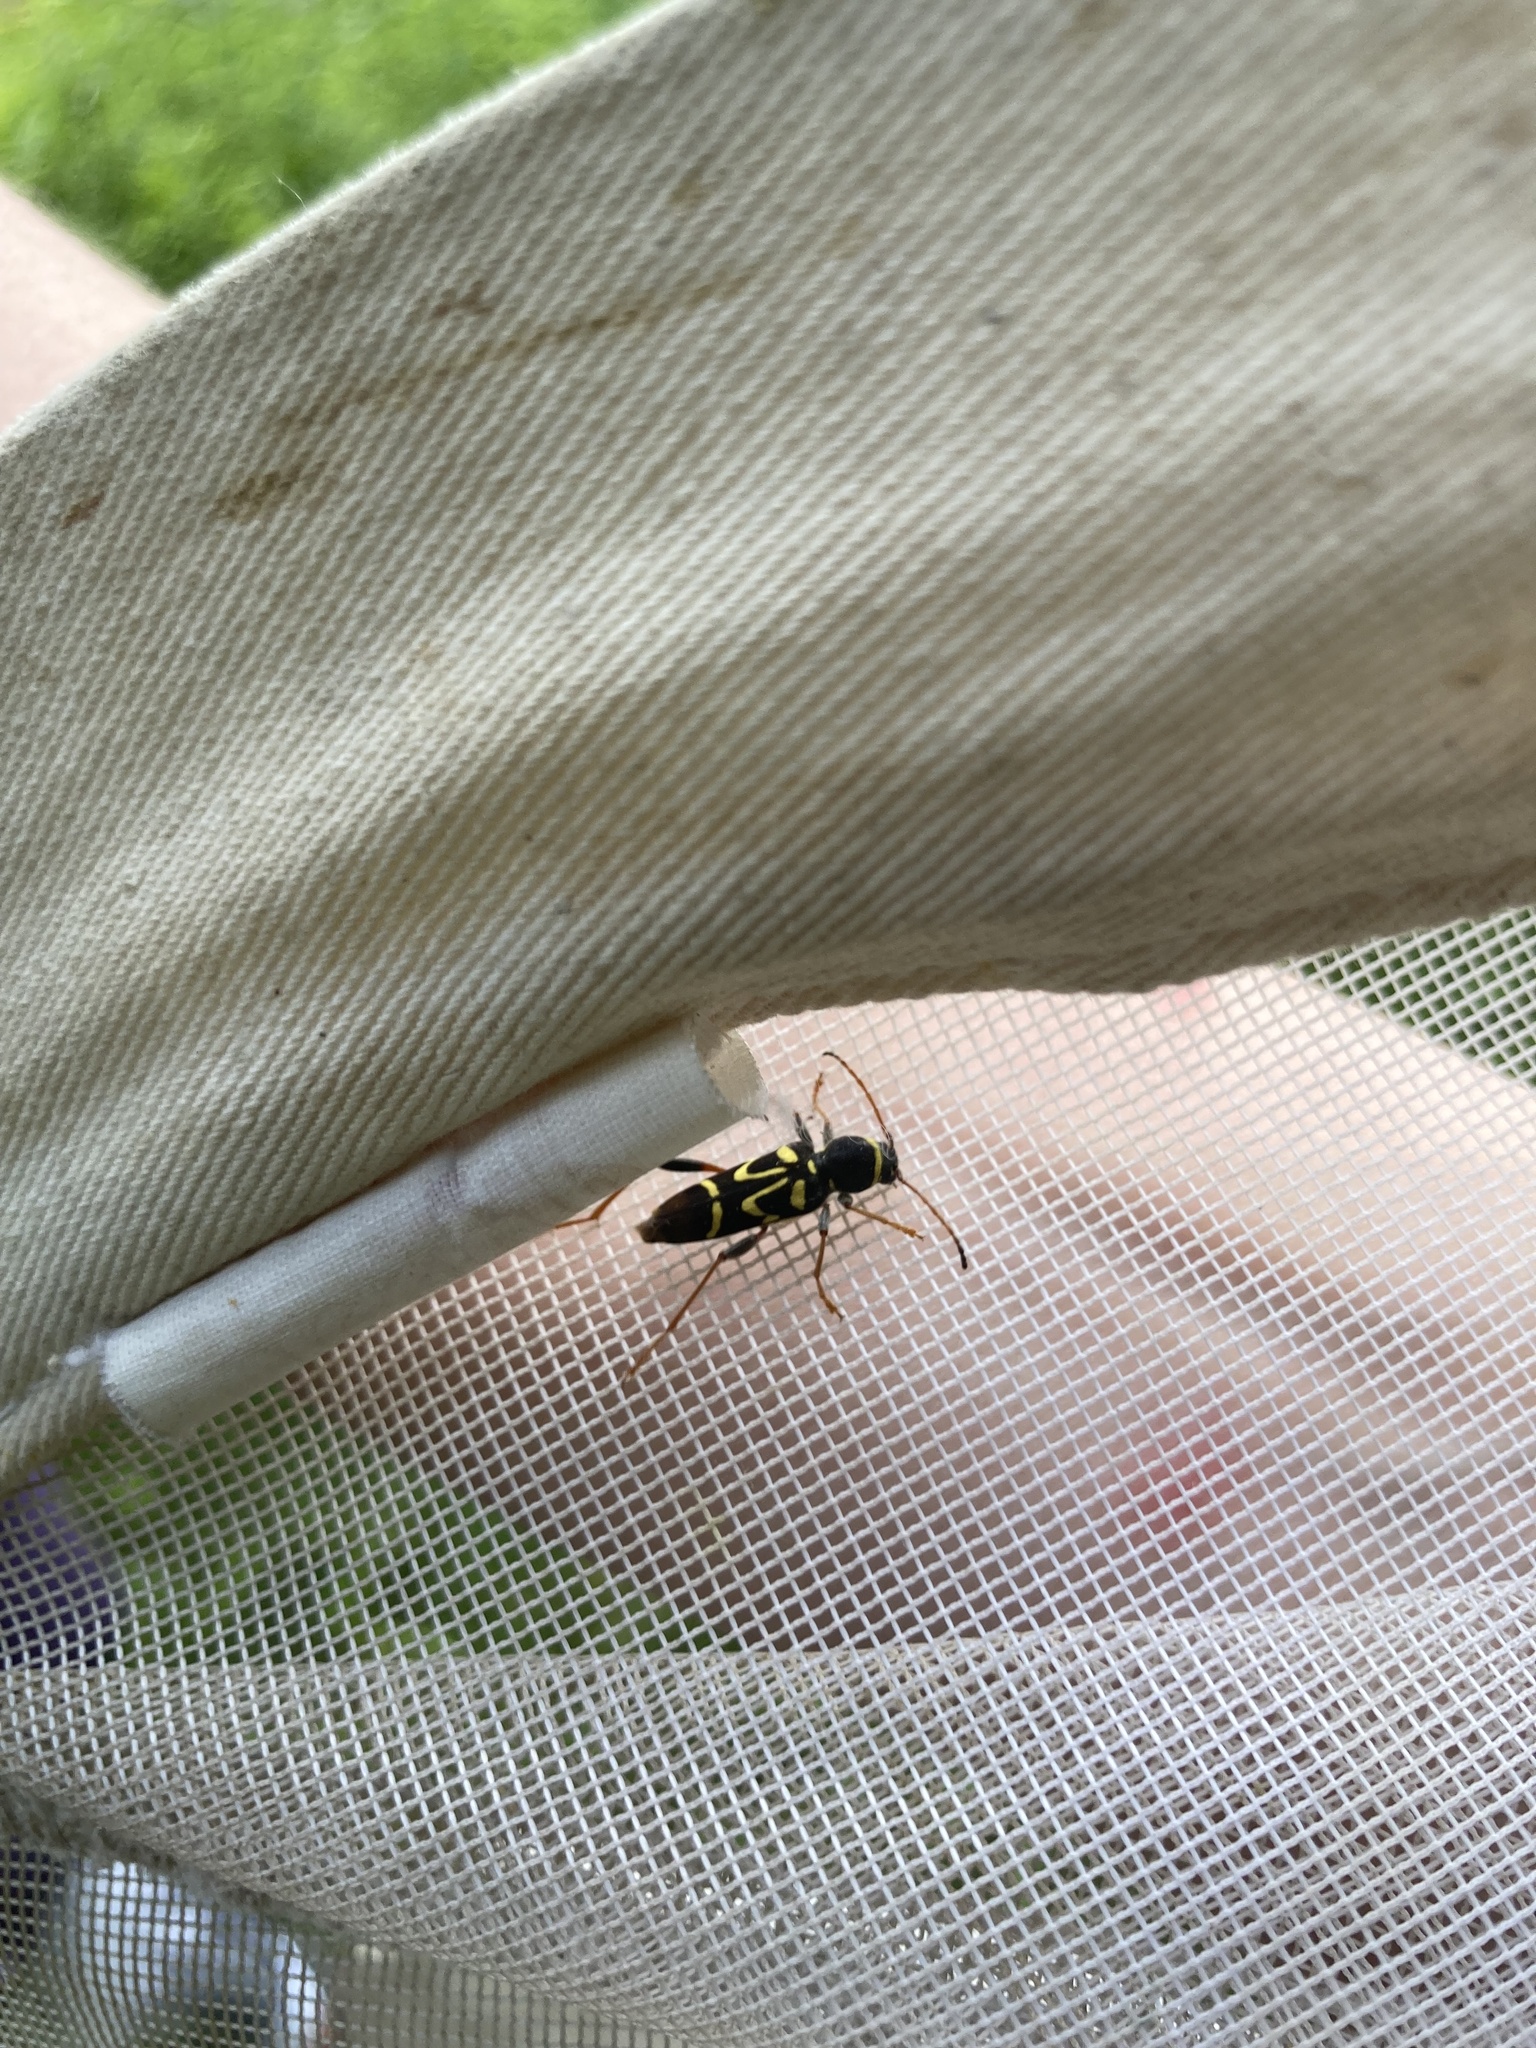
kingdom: Animalia
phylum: Arthropoda
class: Insecta
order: Coleoptera
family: Cerambycidae
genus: Clytus
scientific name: Clytus ruricola
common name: Round-necked longhorn beetle
